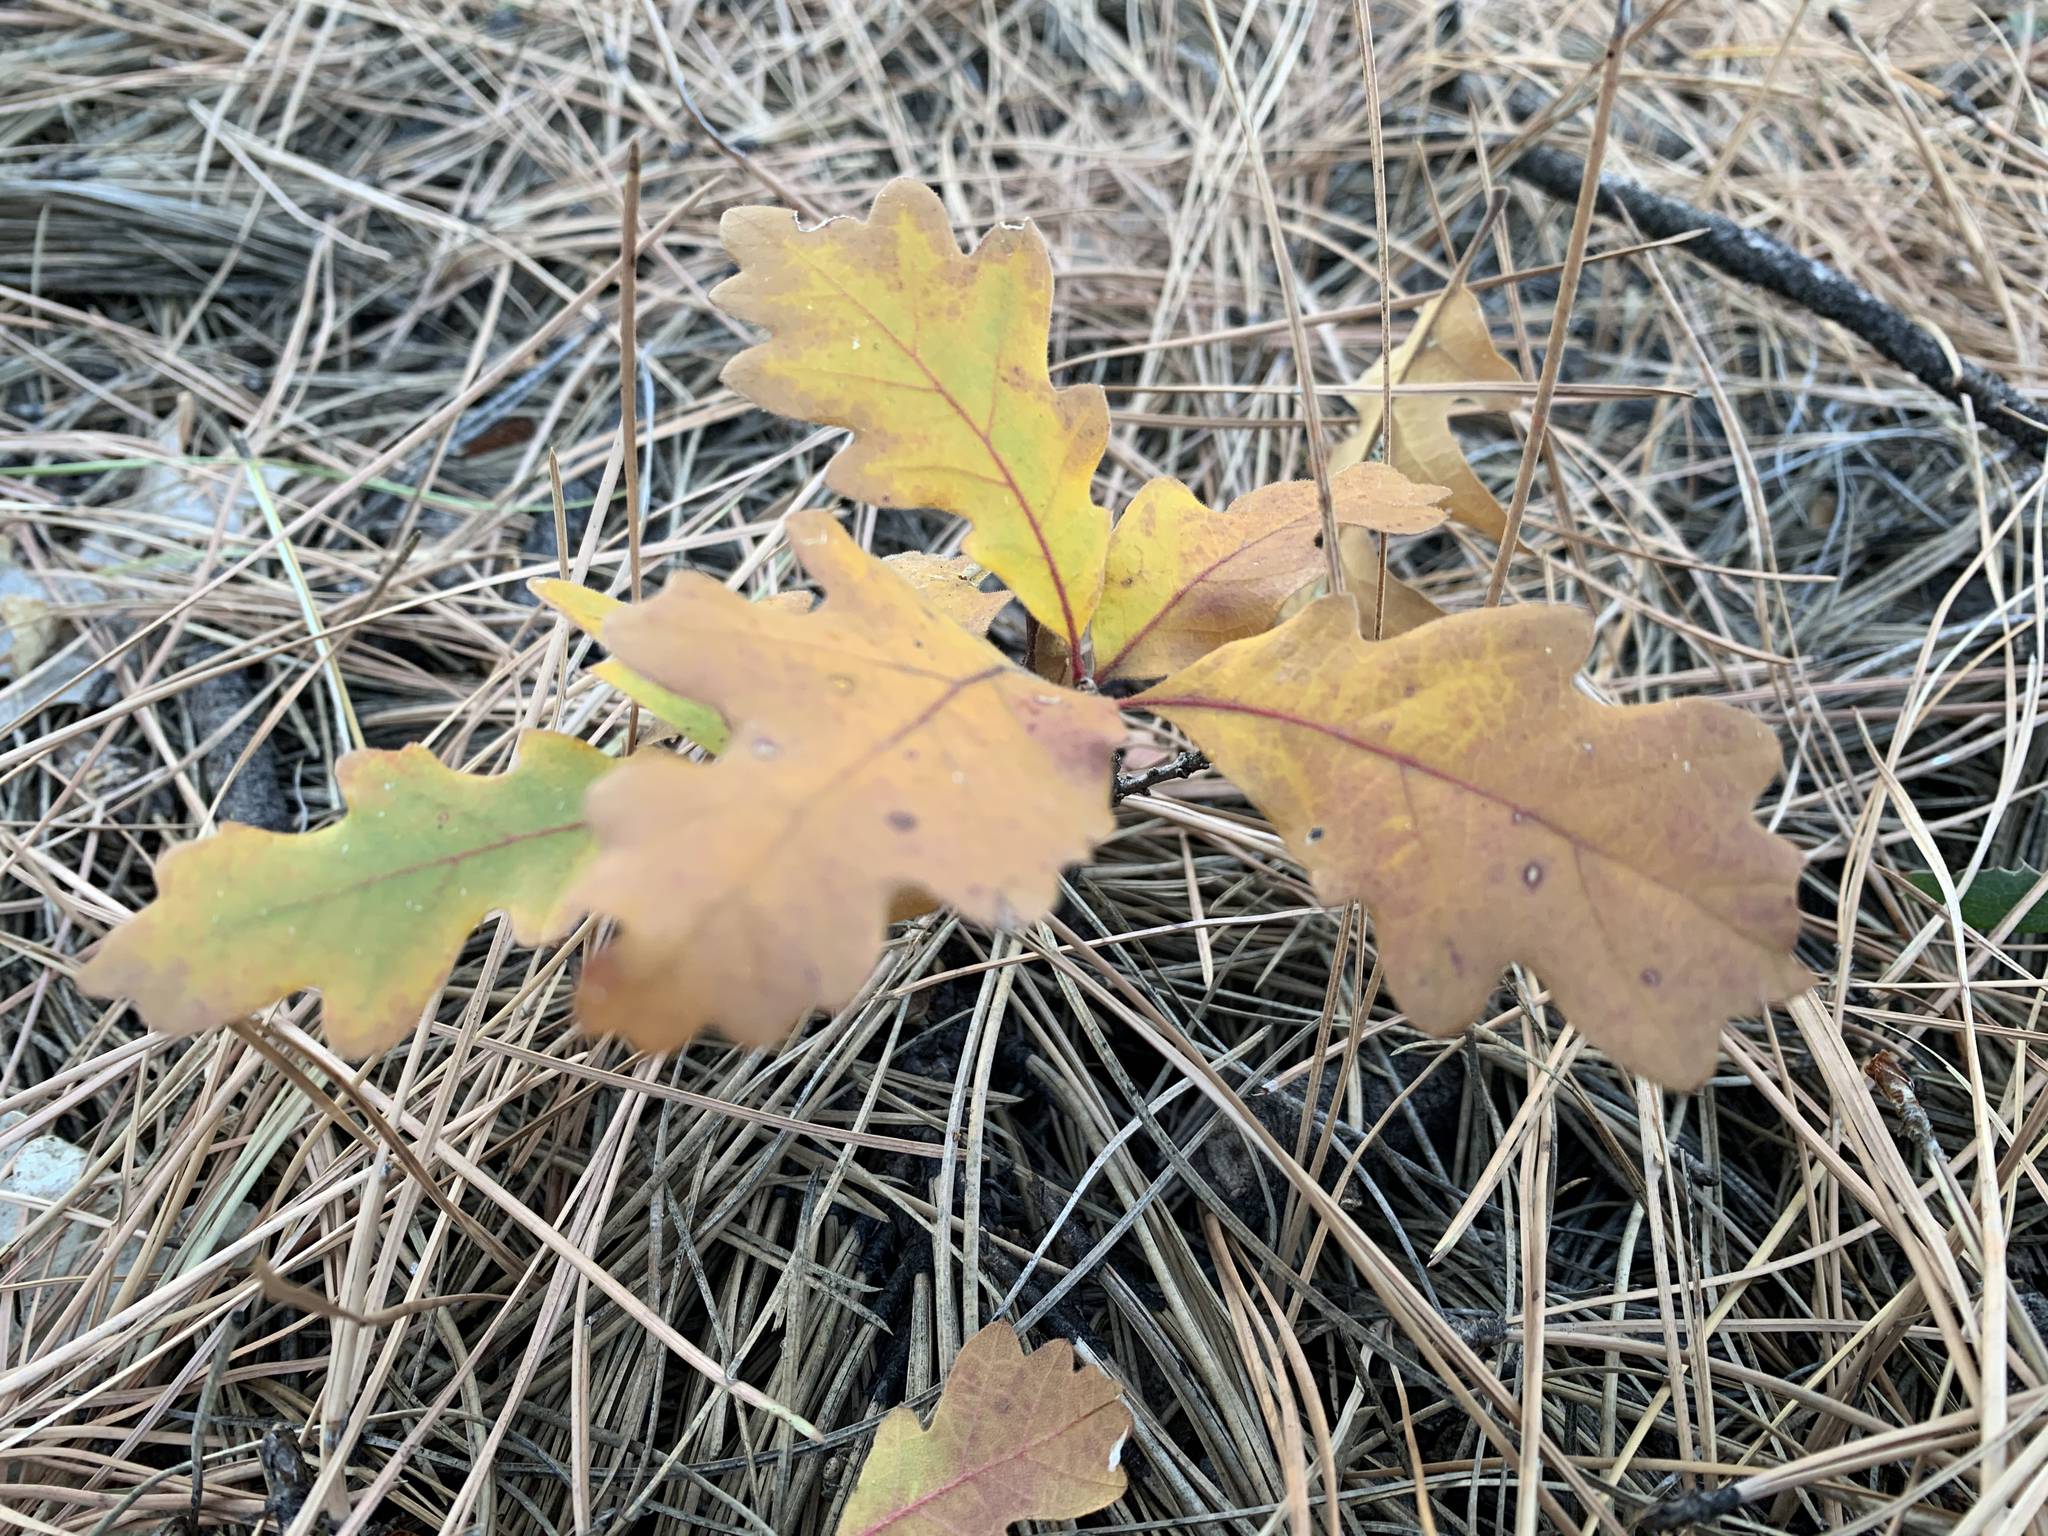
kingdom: Plantae
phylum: Tracheophyta
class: Magnoliopsida
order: Fagales
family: Fagaceae
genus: Quercus
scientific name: Quercus gambelii
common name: Gambel oak
